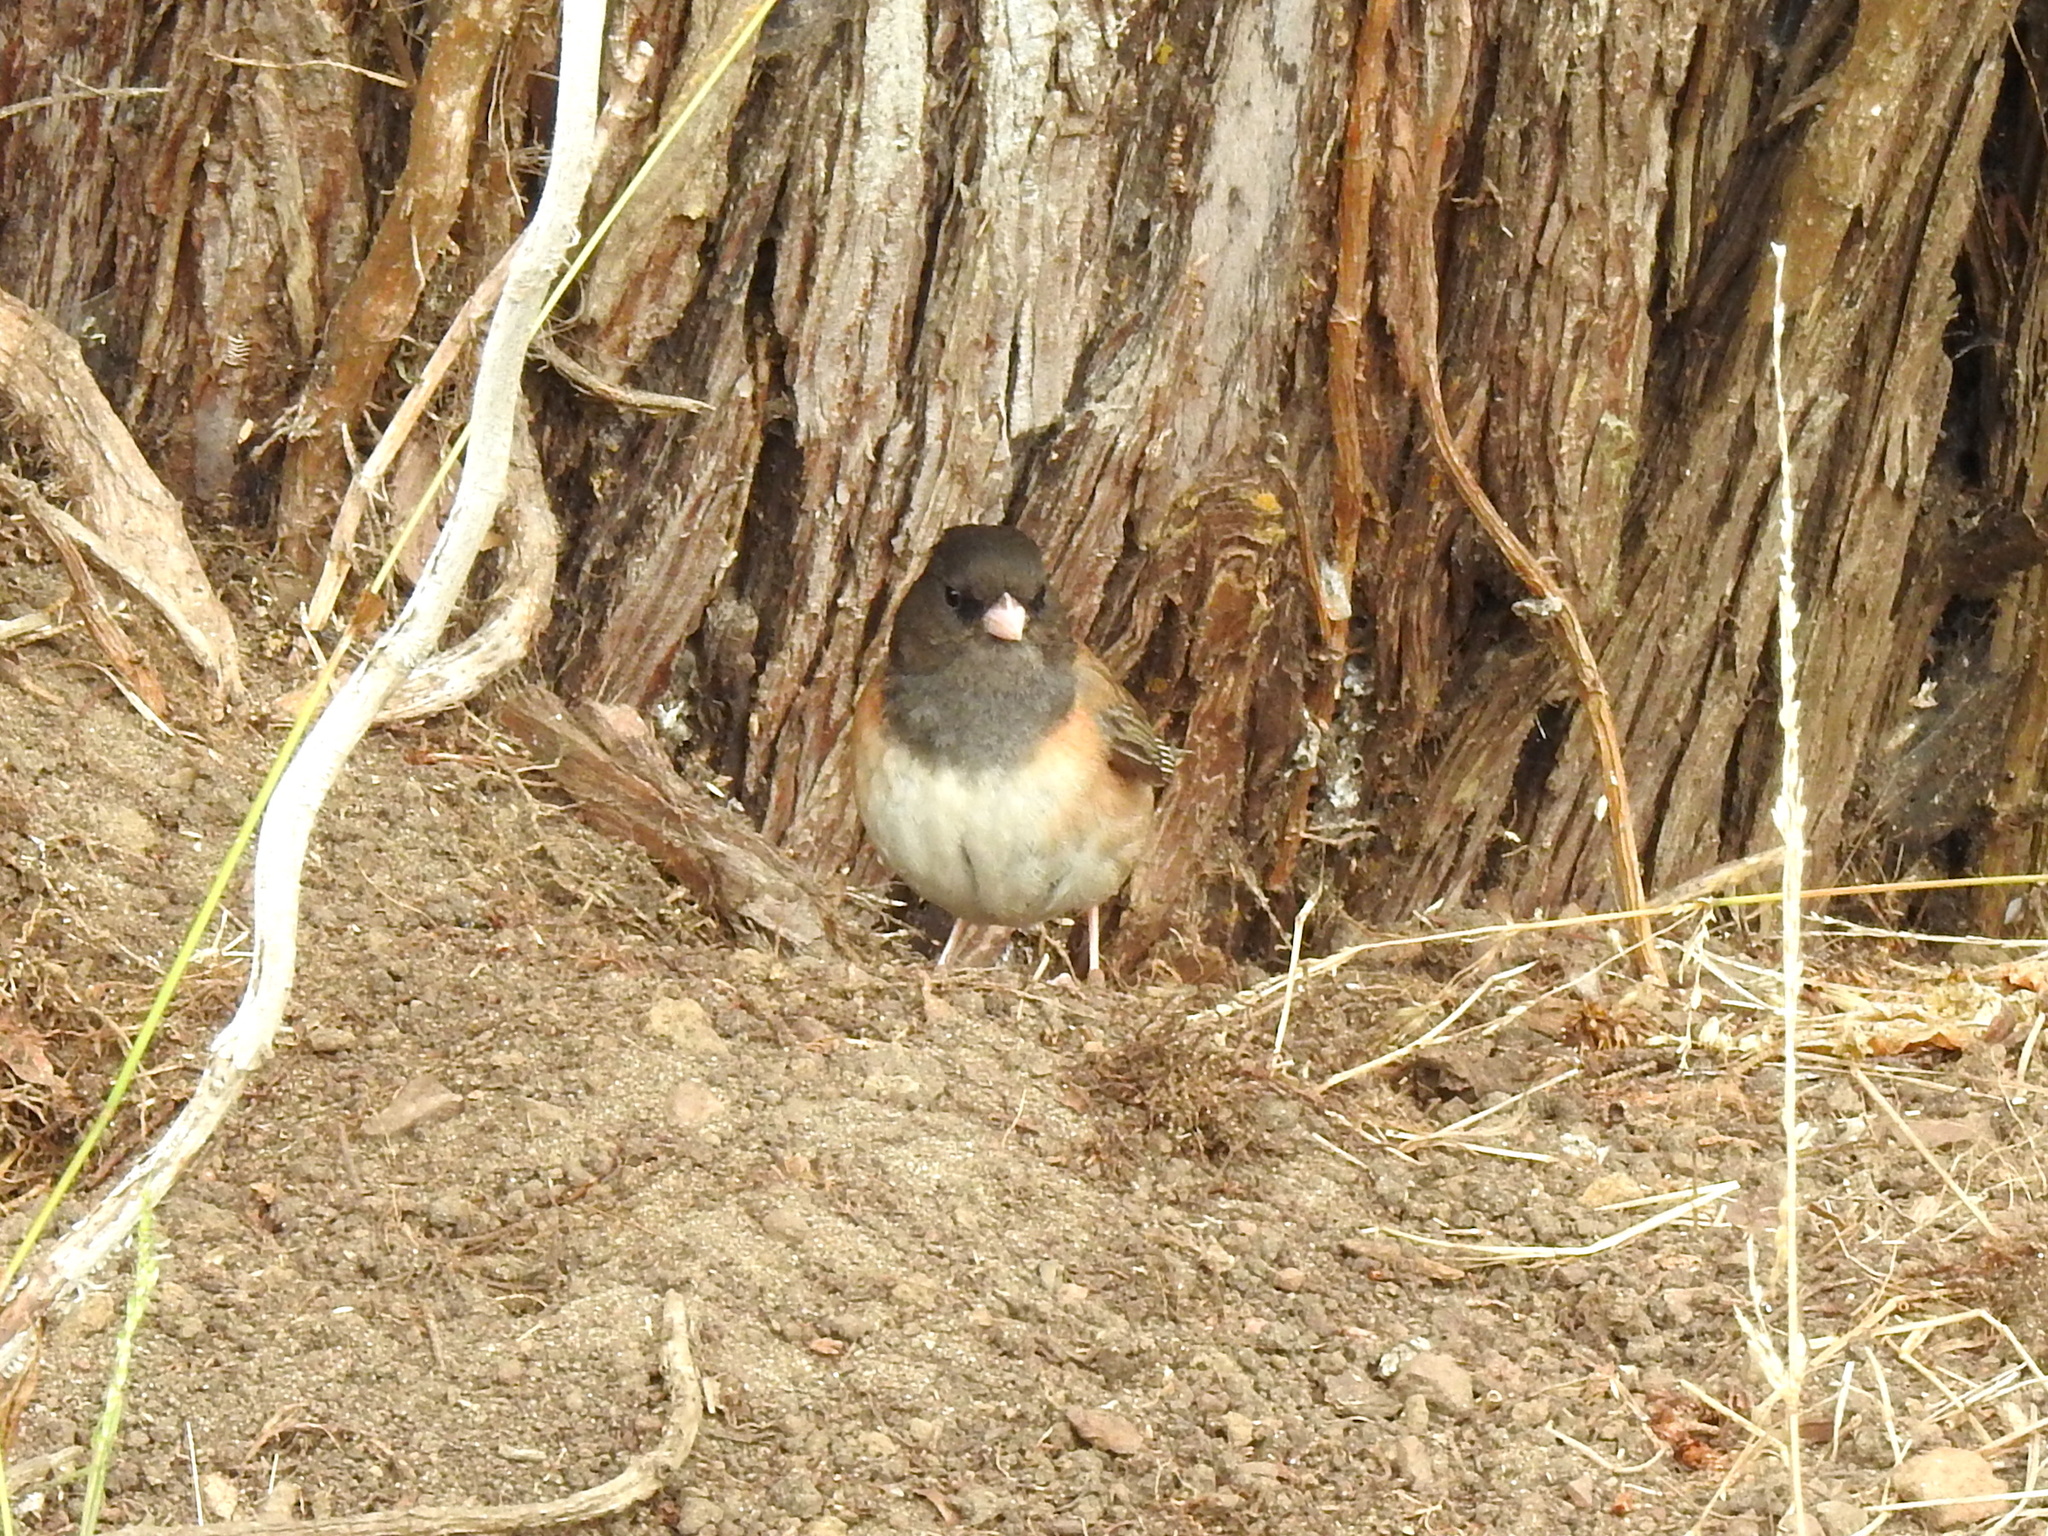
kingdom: Animalia
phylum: Chordata
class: Aves
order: Passeriformes
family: Passerellidae
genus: Junco
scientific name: Junco hyemalis
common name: Dark-eyed junco
